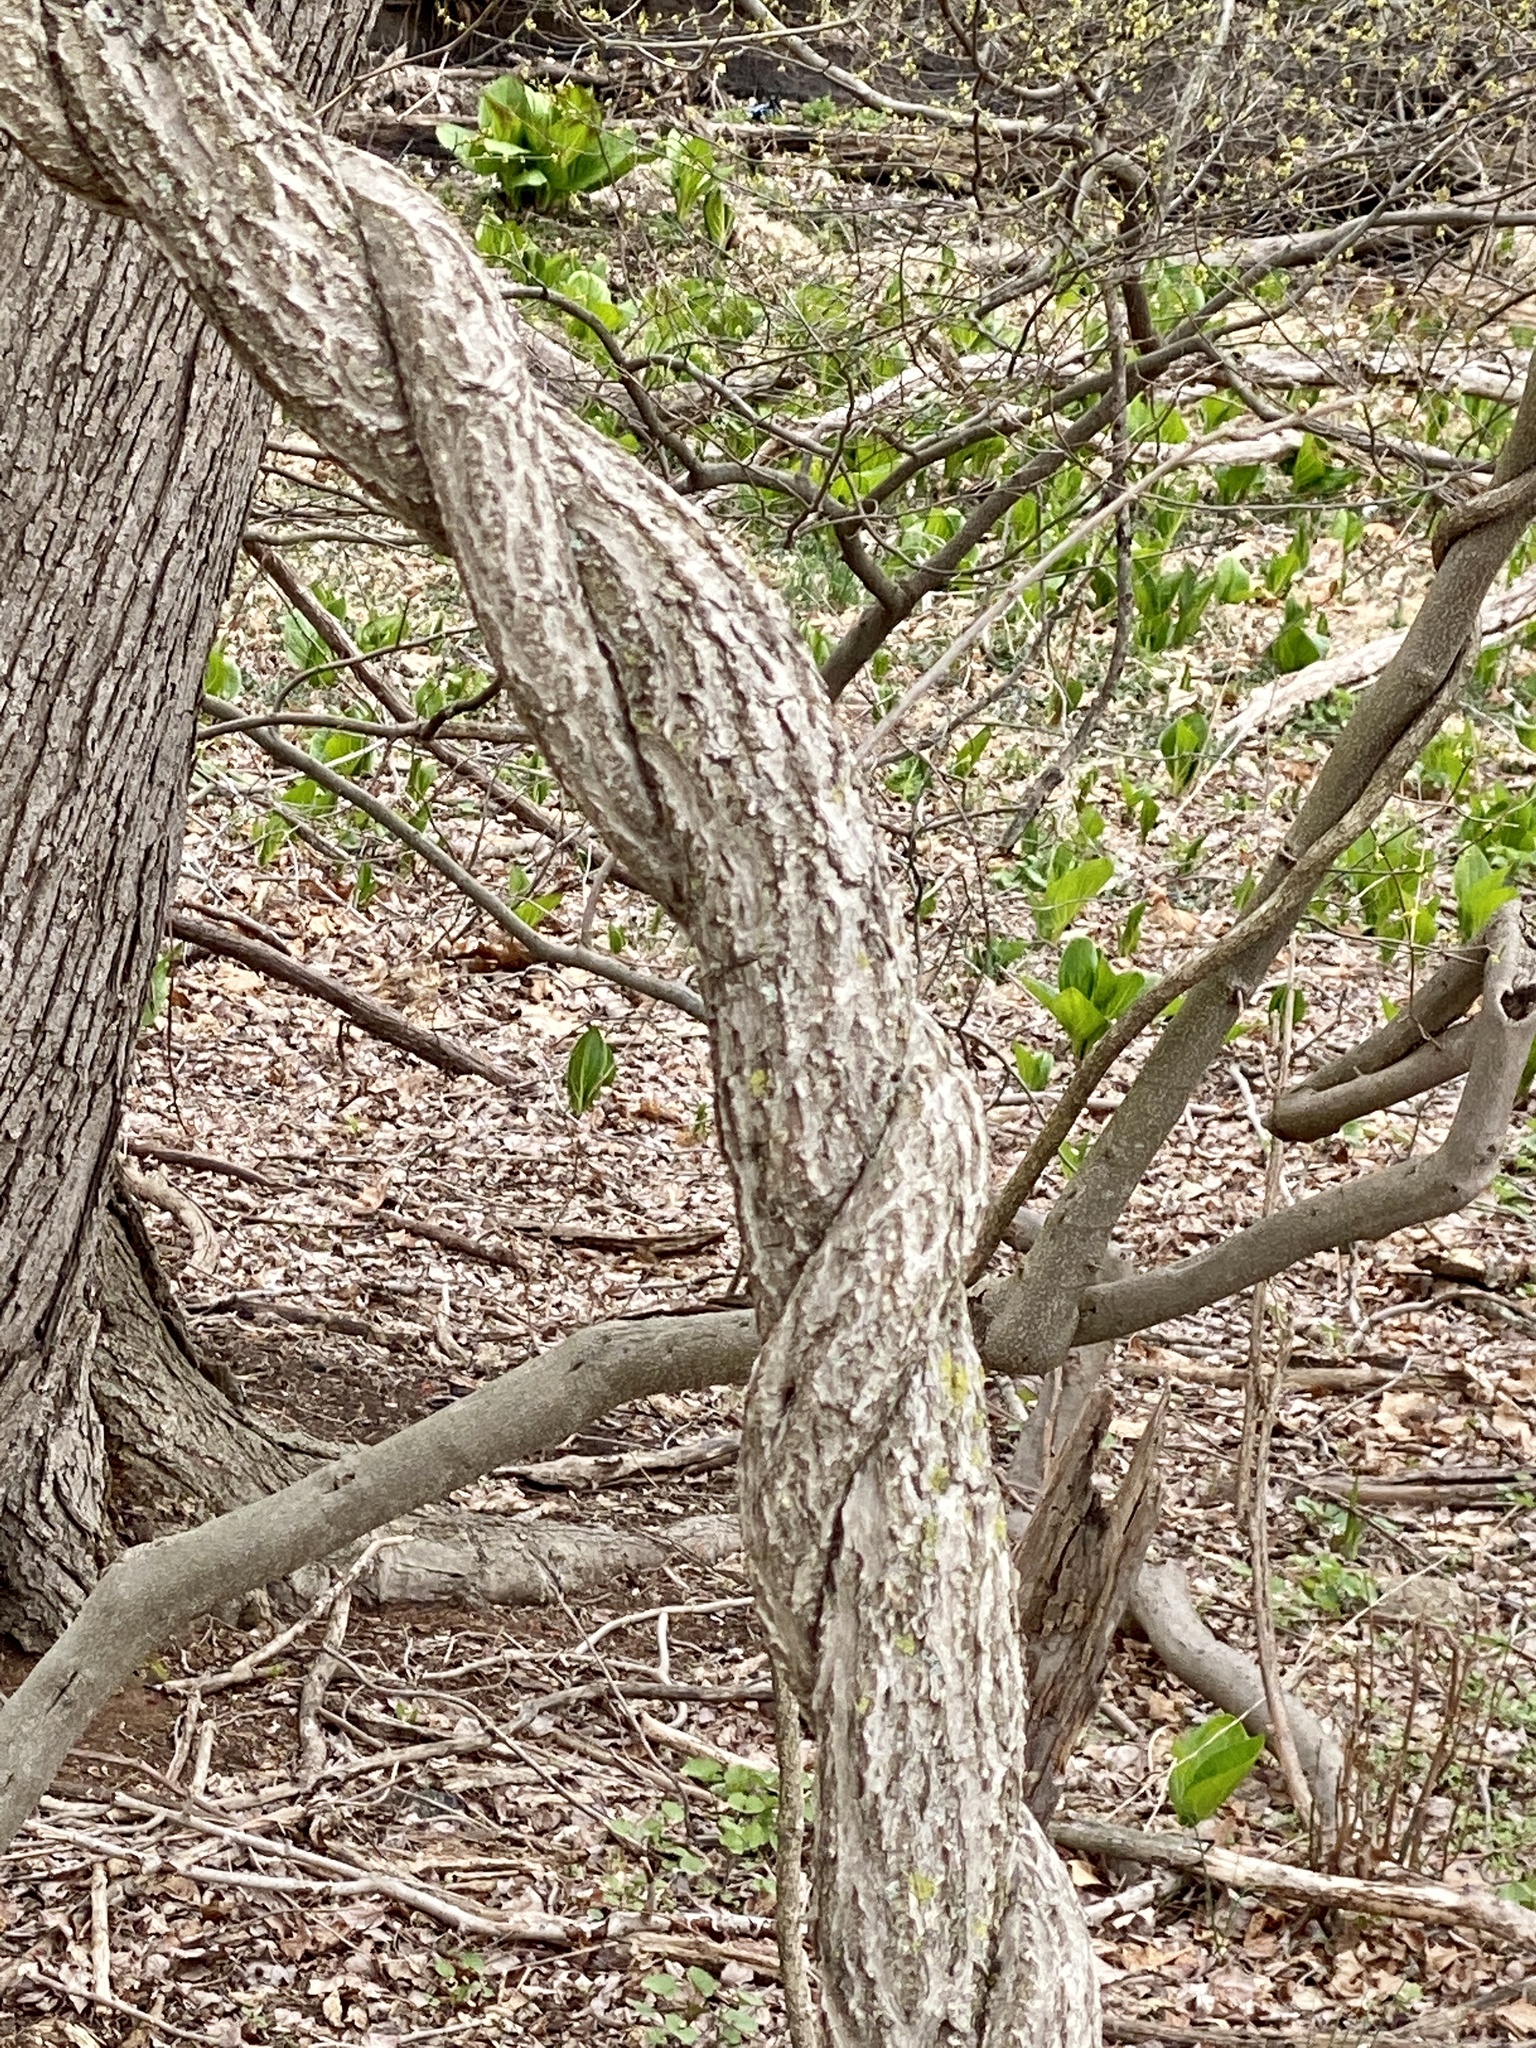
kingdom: Plantae
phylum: Tracheophyta
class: Magnoliopsida
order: Celastrales
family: Celastraceae
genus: Celastrus
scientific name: Celastrus orbiculatus
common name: Oriental bittersweet
